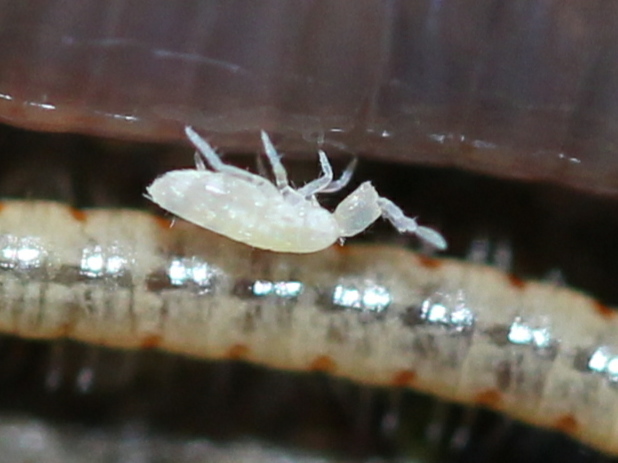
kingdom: Animalia
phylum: Arthropoda
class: Collembola
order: Entomobryomorpha
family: Paronellidae
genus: Cyphoderus
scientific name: Cyphoderus similis
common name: Springtail
